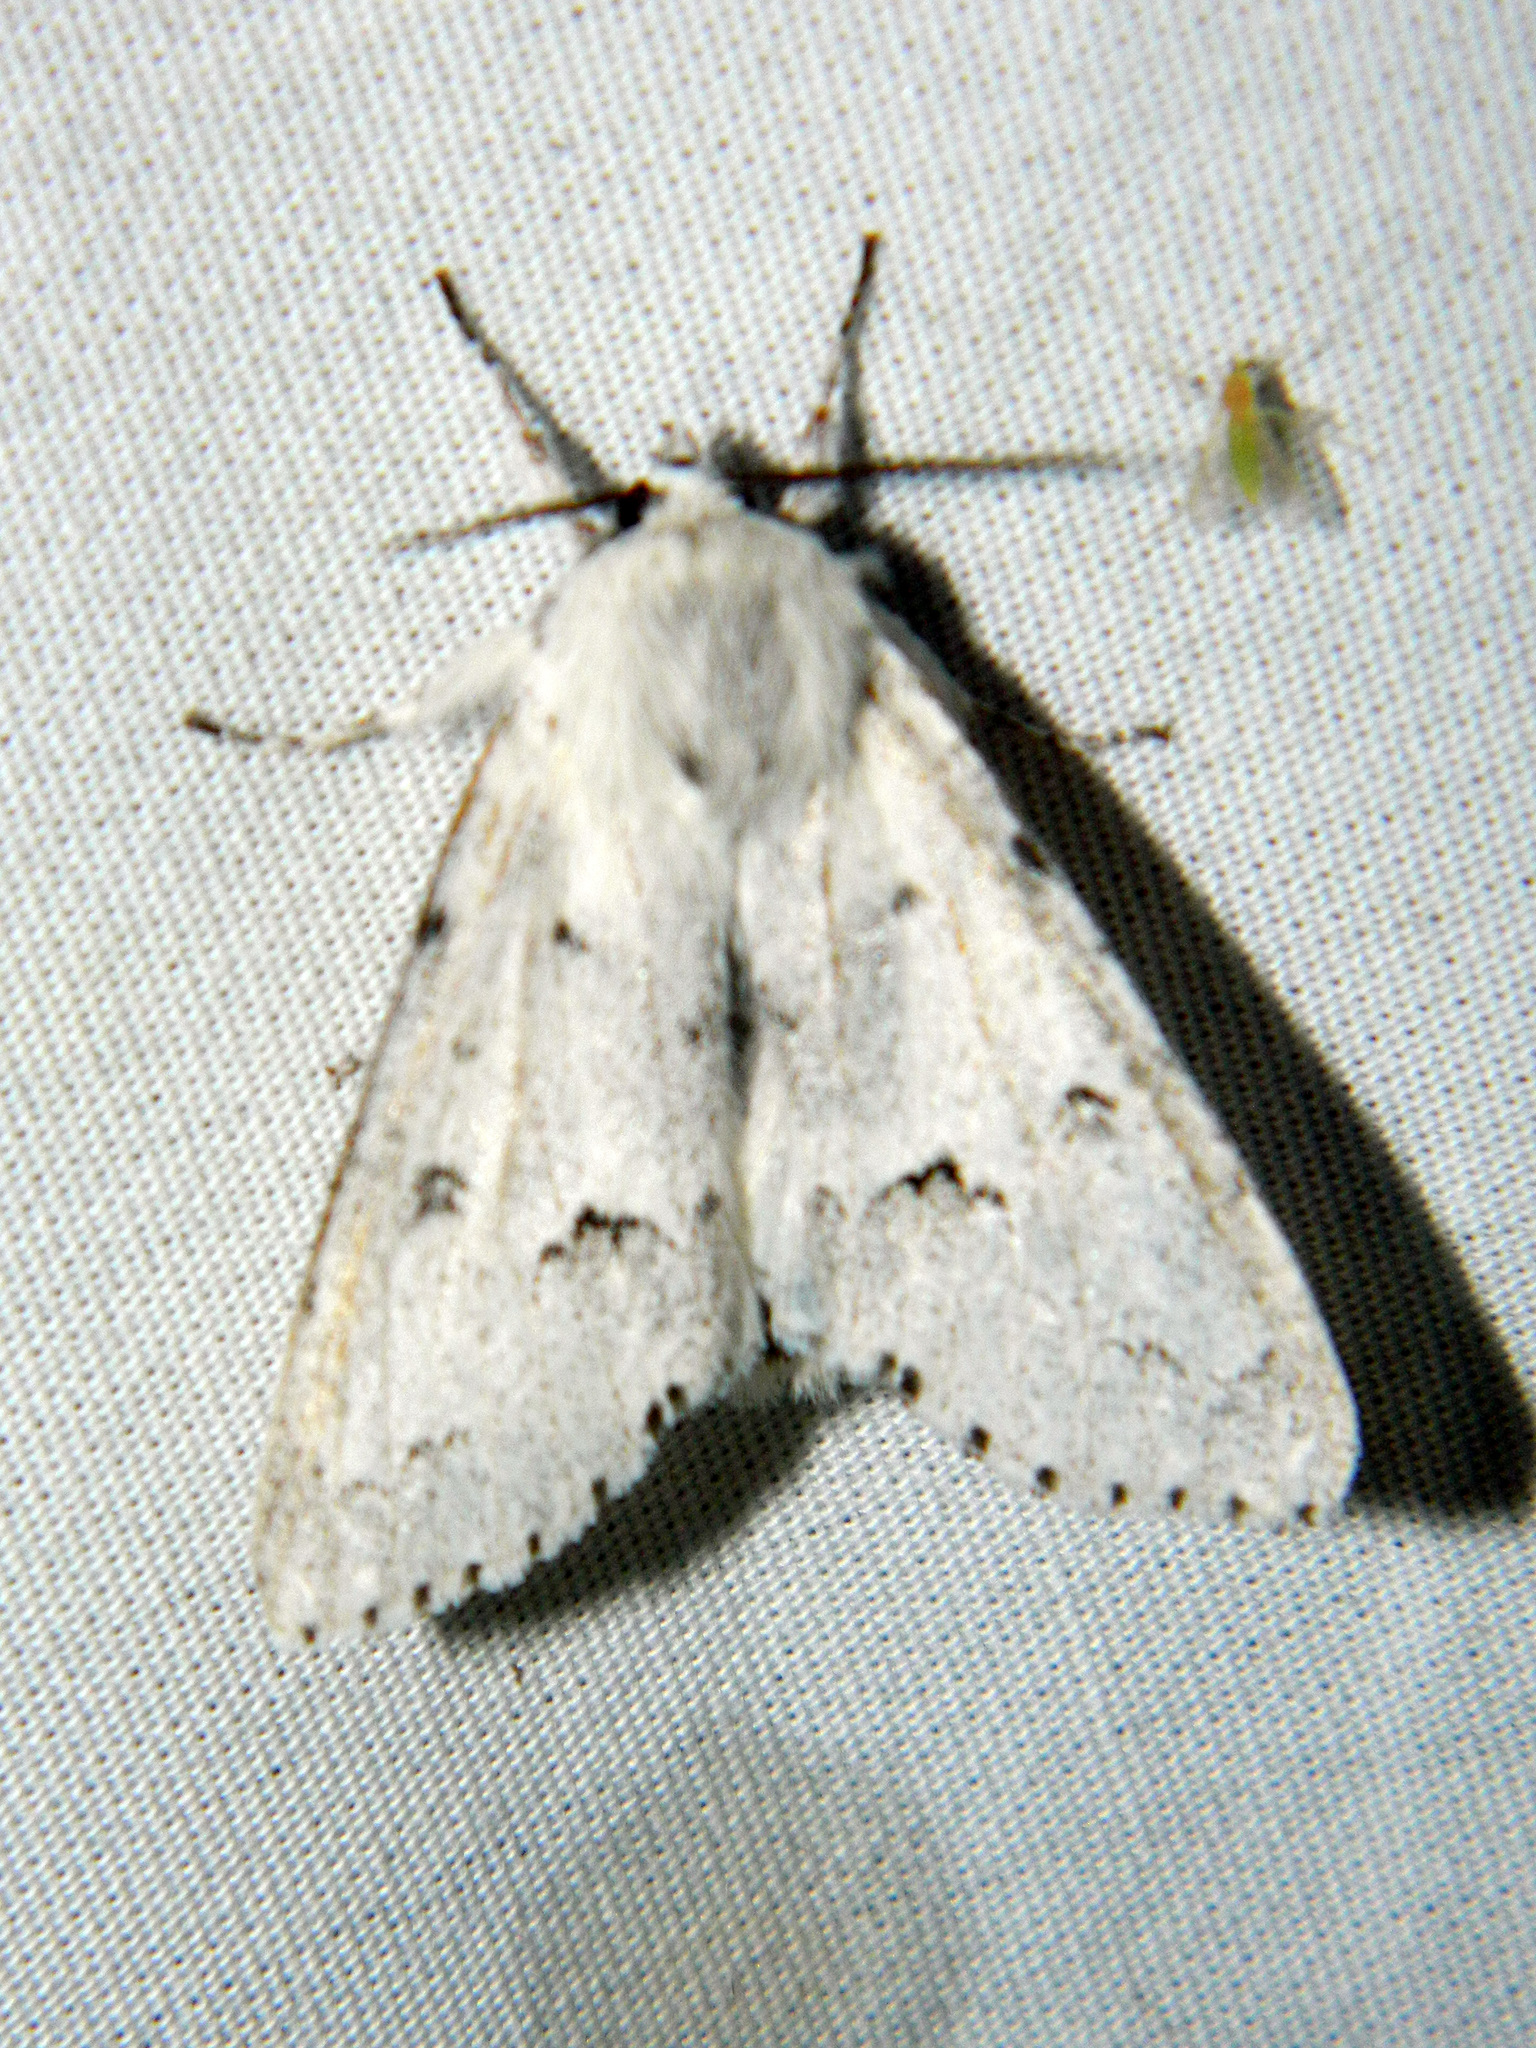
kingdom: Animalia
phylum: Arthropoda
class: Insecta
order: Lepidoptera
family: Noctuidae
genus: Acronicta
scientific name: Acronicta vulpina
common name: Miller dagger
